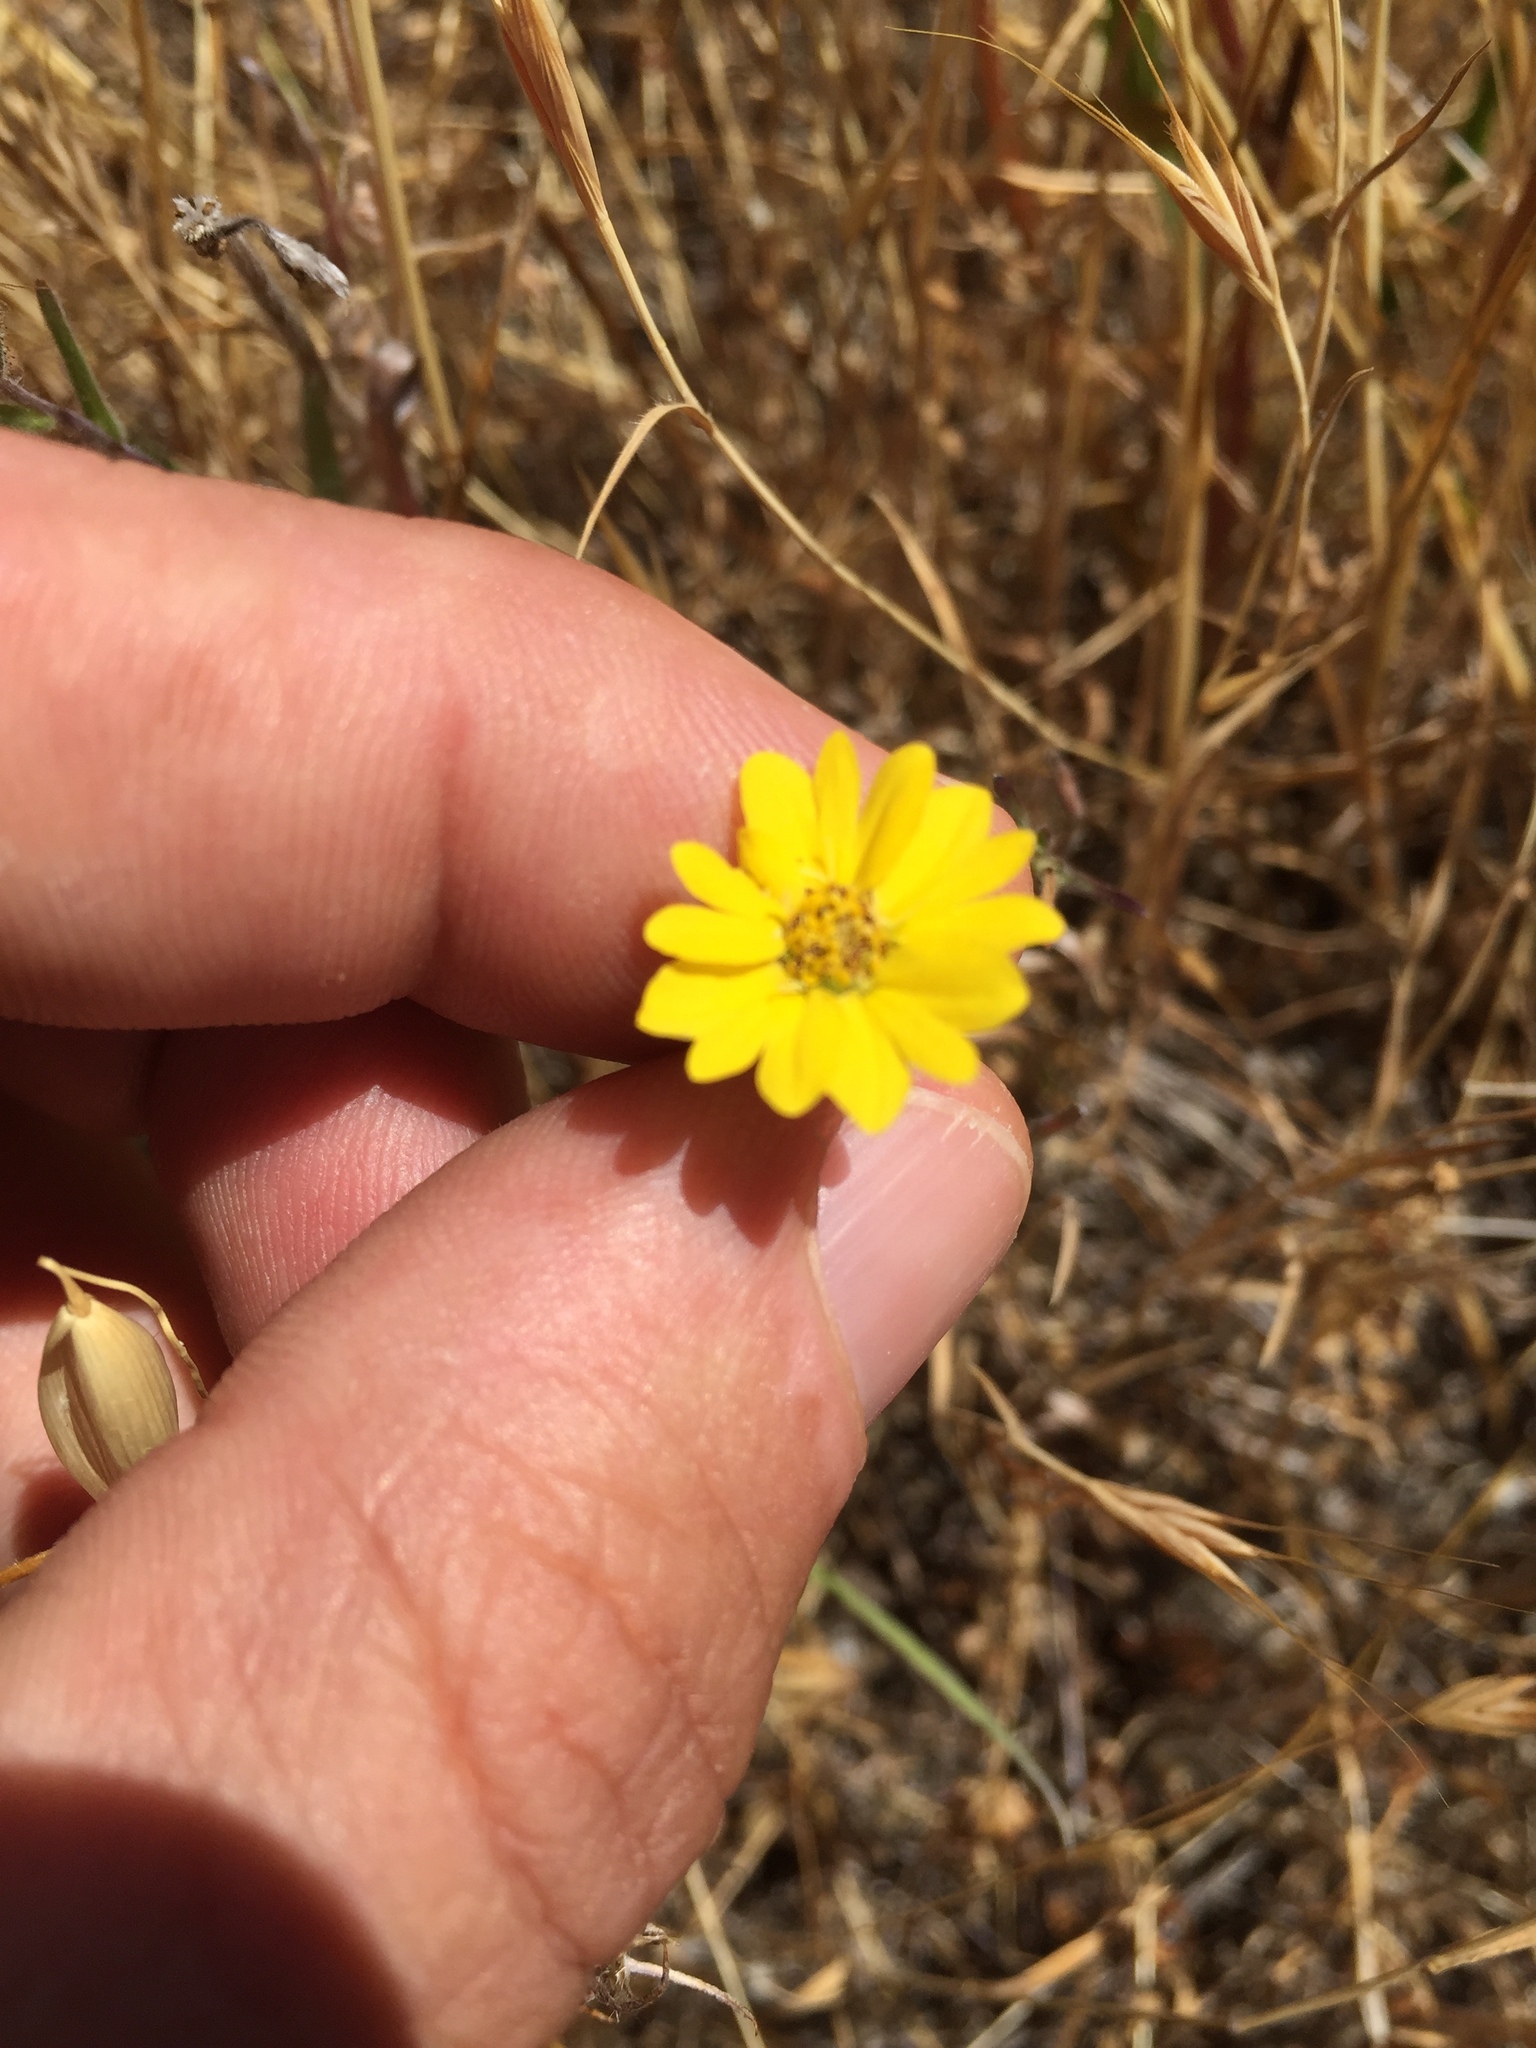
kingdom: Plantae
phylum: Tracheophyta
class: Magnoliopsida
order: Asterales
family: Asteraceae
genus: Hemizonia
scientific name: Hemizonia congesta
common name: Hayfield tarweed
